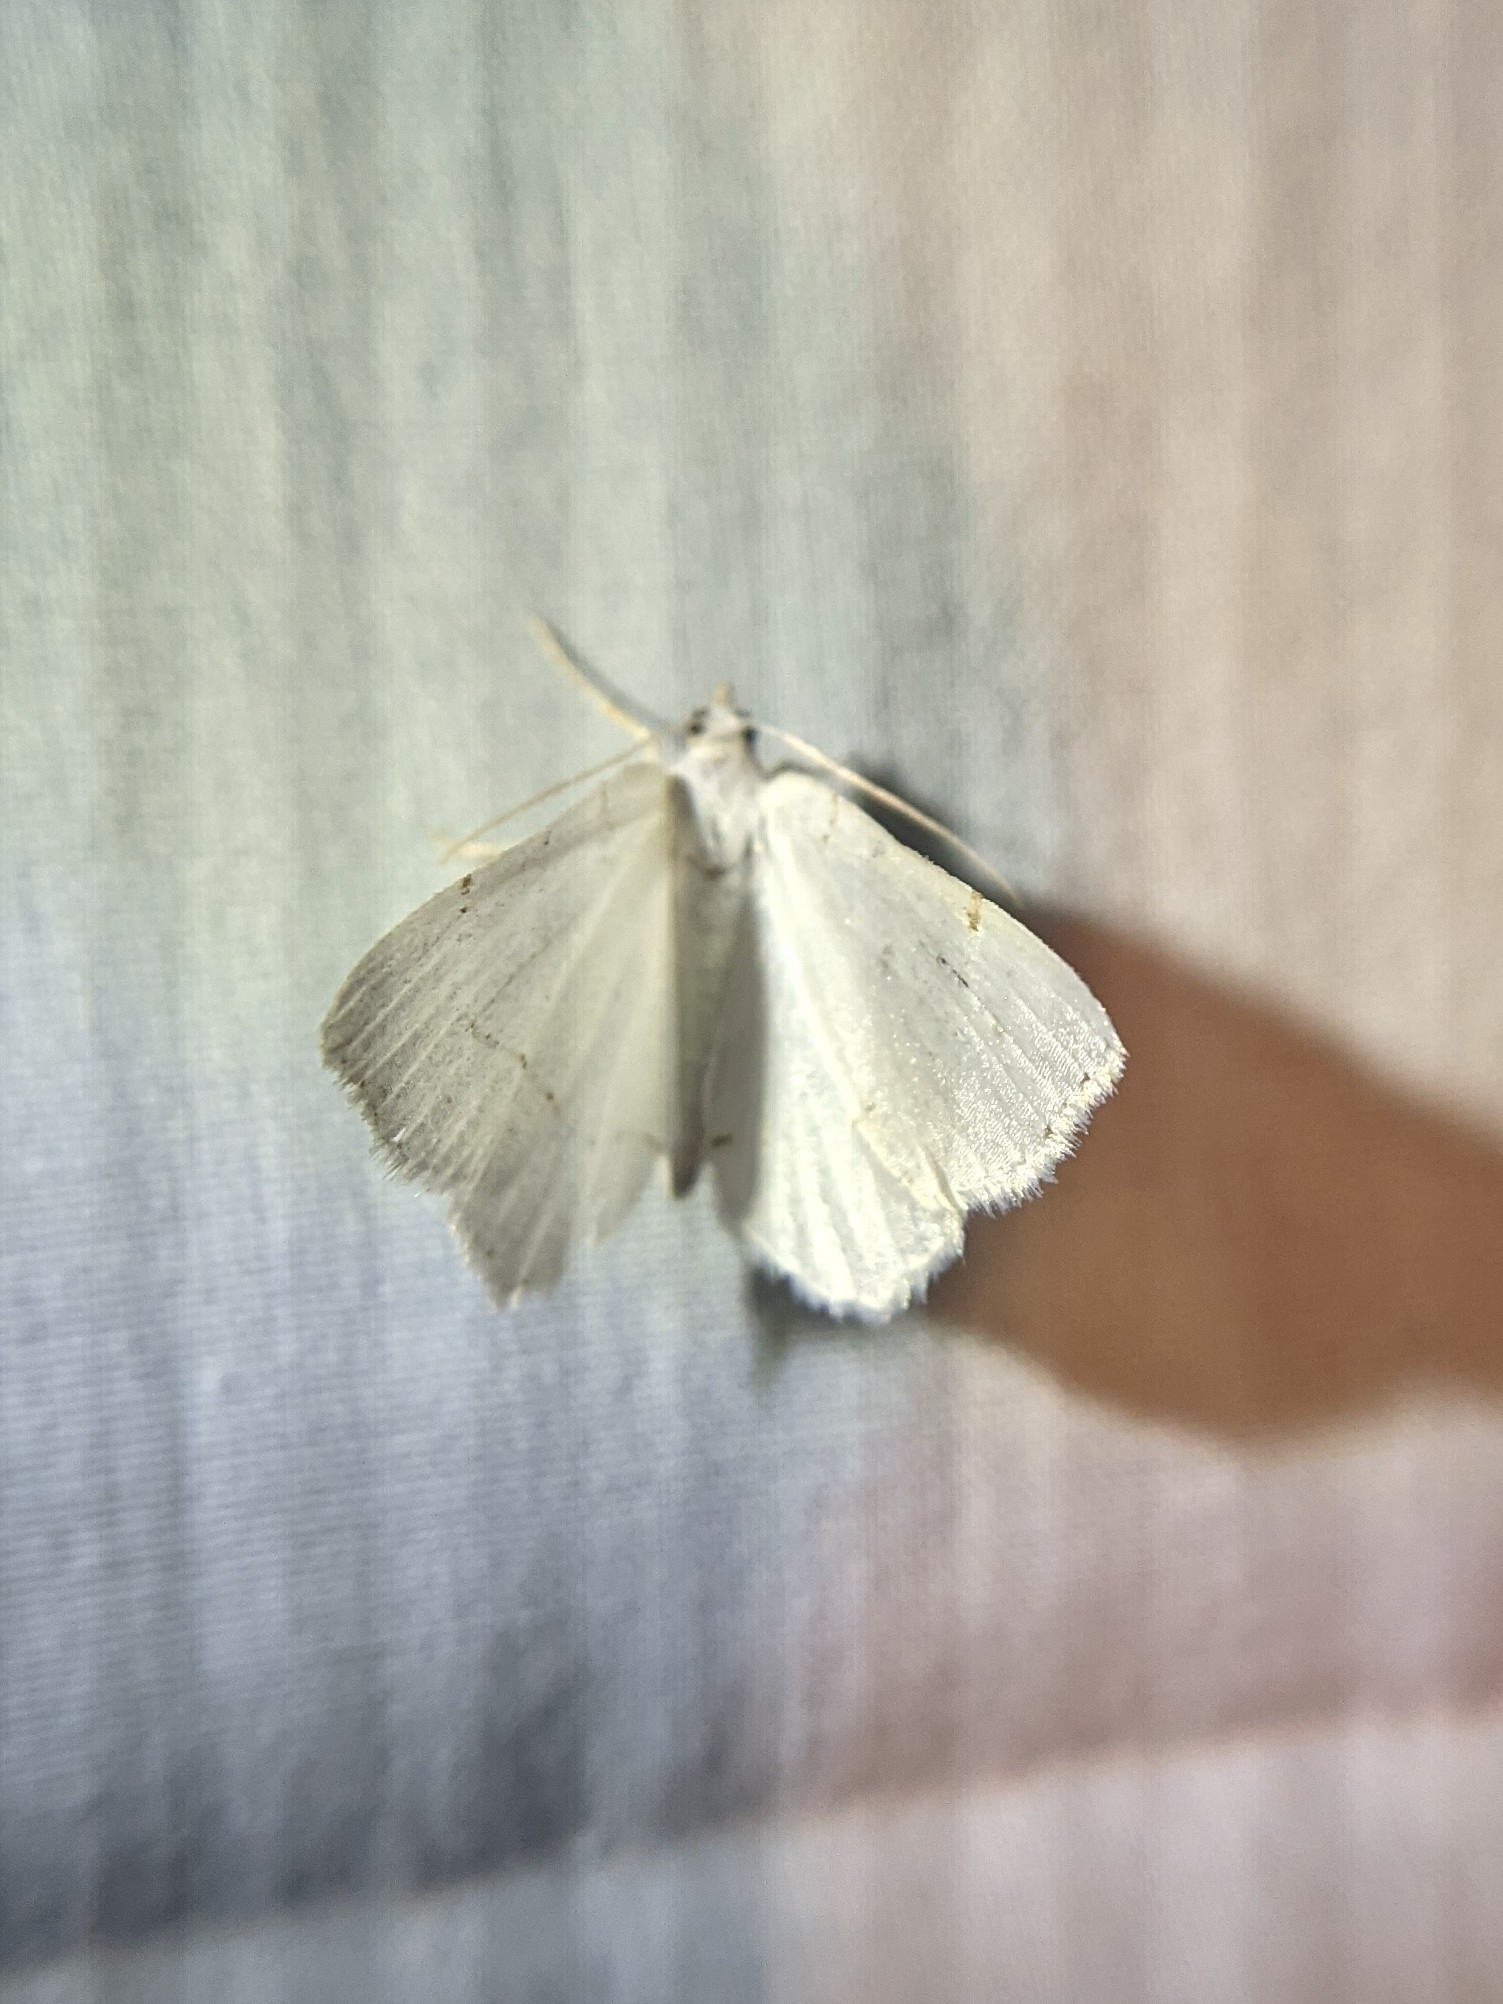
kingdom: Animalia
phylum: Arthropoda
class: Insecta
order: Lepidoptera
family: Geometridae
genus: Macaria
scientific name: Macaria pustularia
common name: Lesser maple spanworm moth
